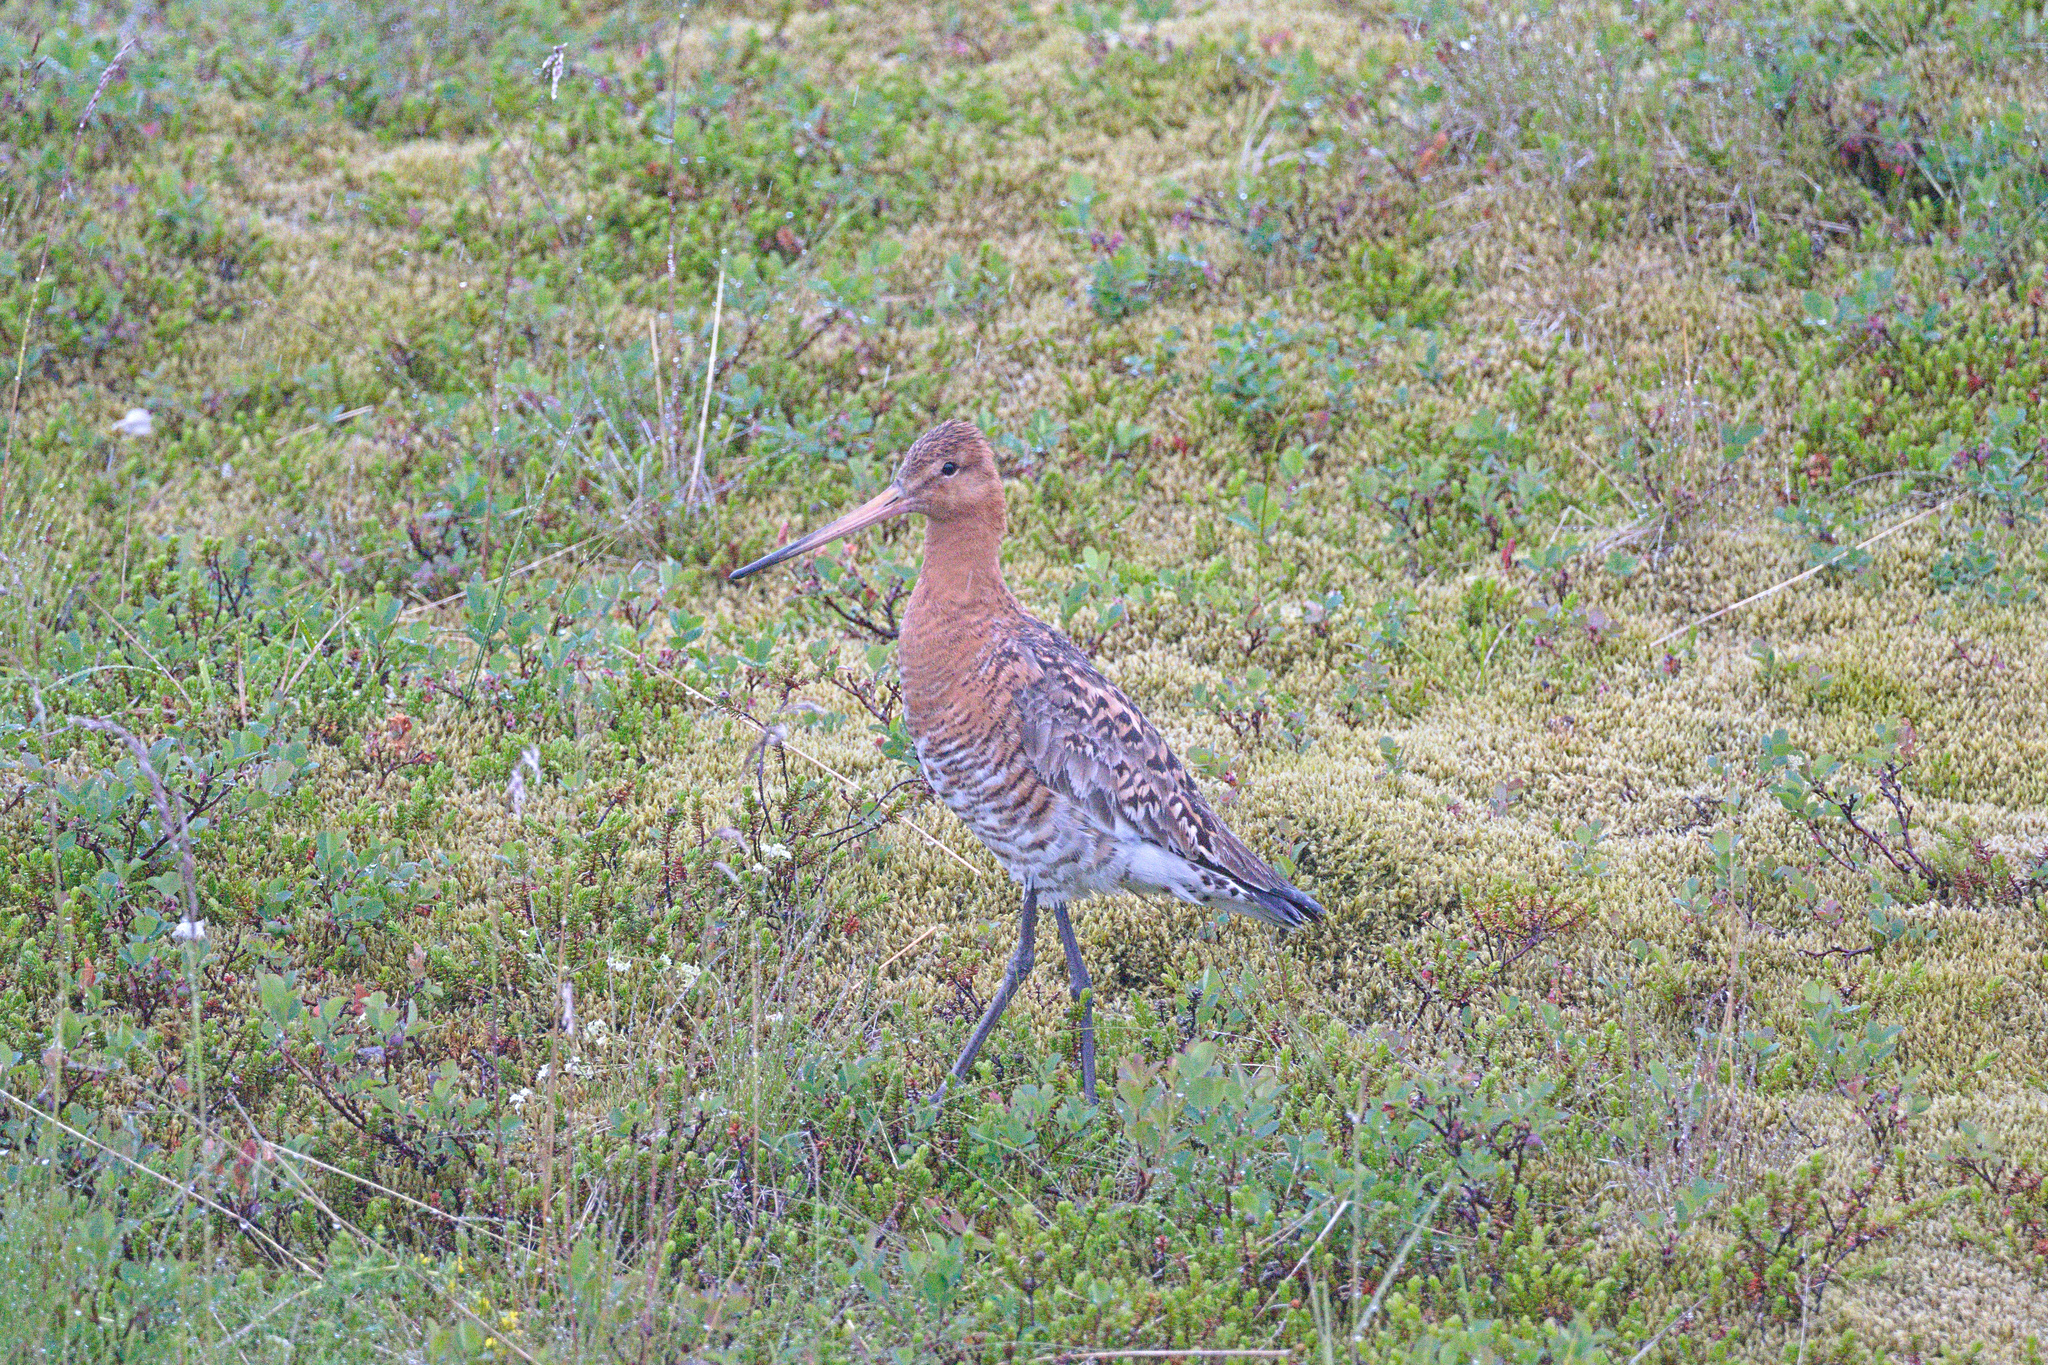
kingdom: Animalia
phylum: Chordata
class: Aves
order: Charadriiformes
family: Scolopacidae
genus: Limosa
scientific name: Limosa limosa
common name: Black-tailed godwit
